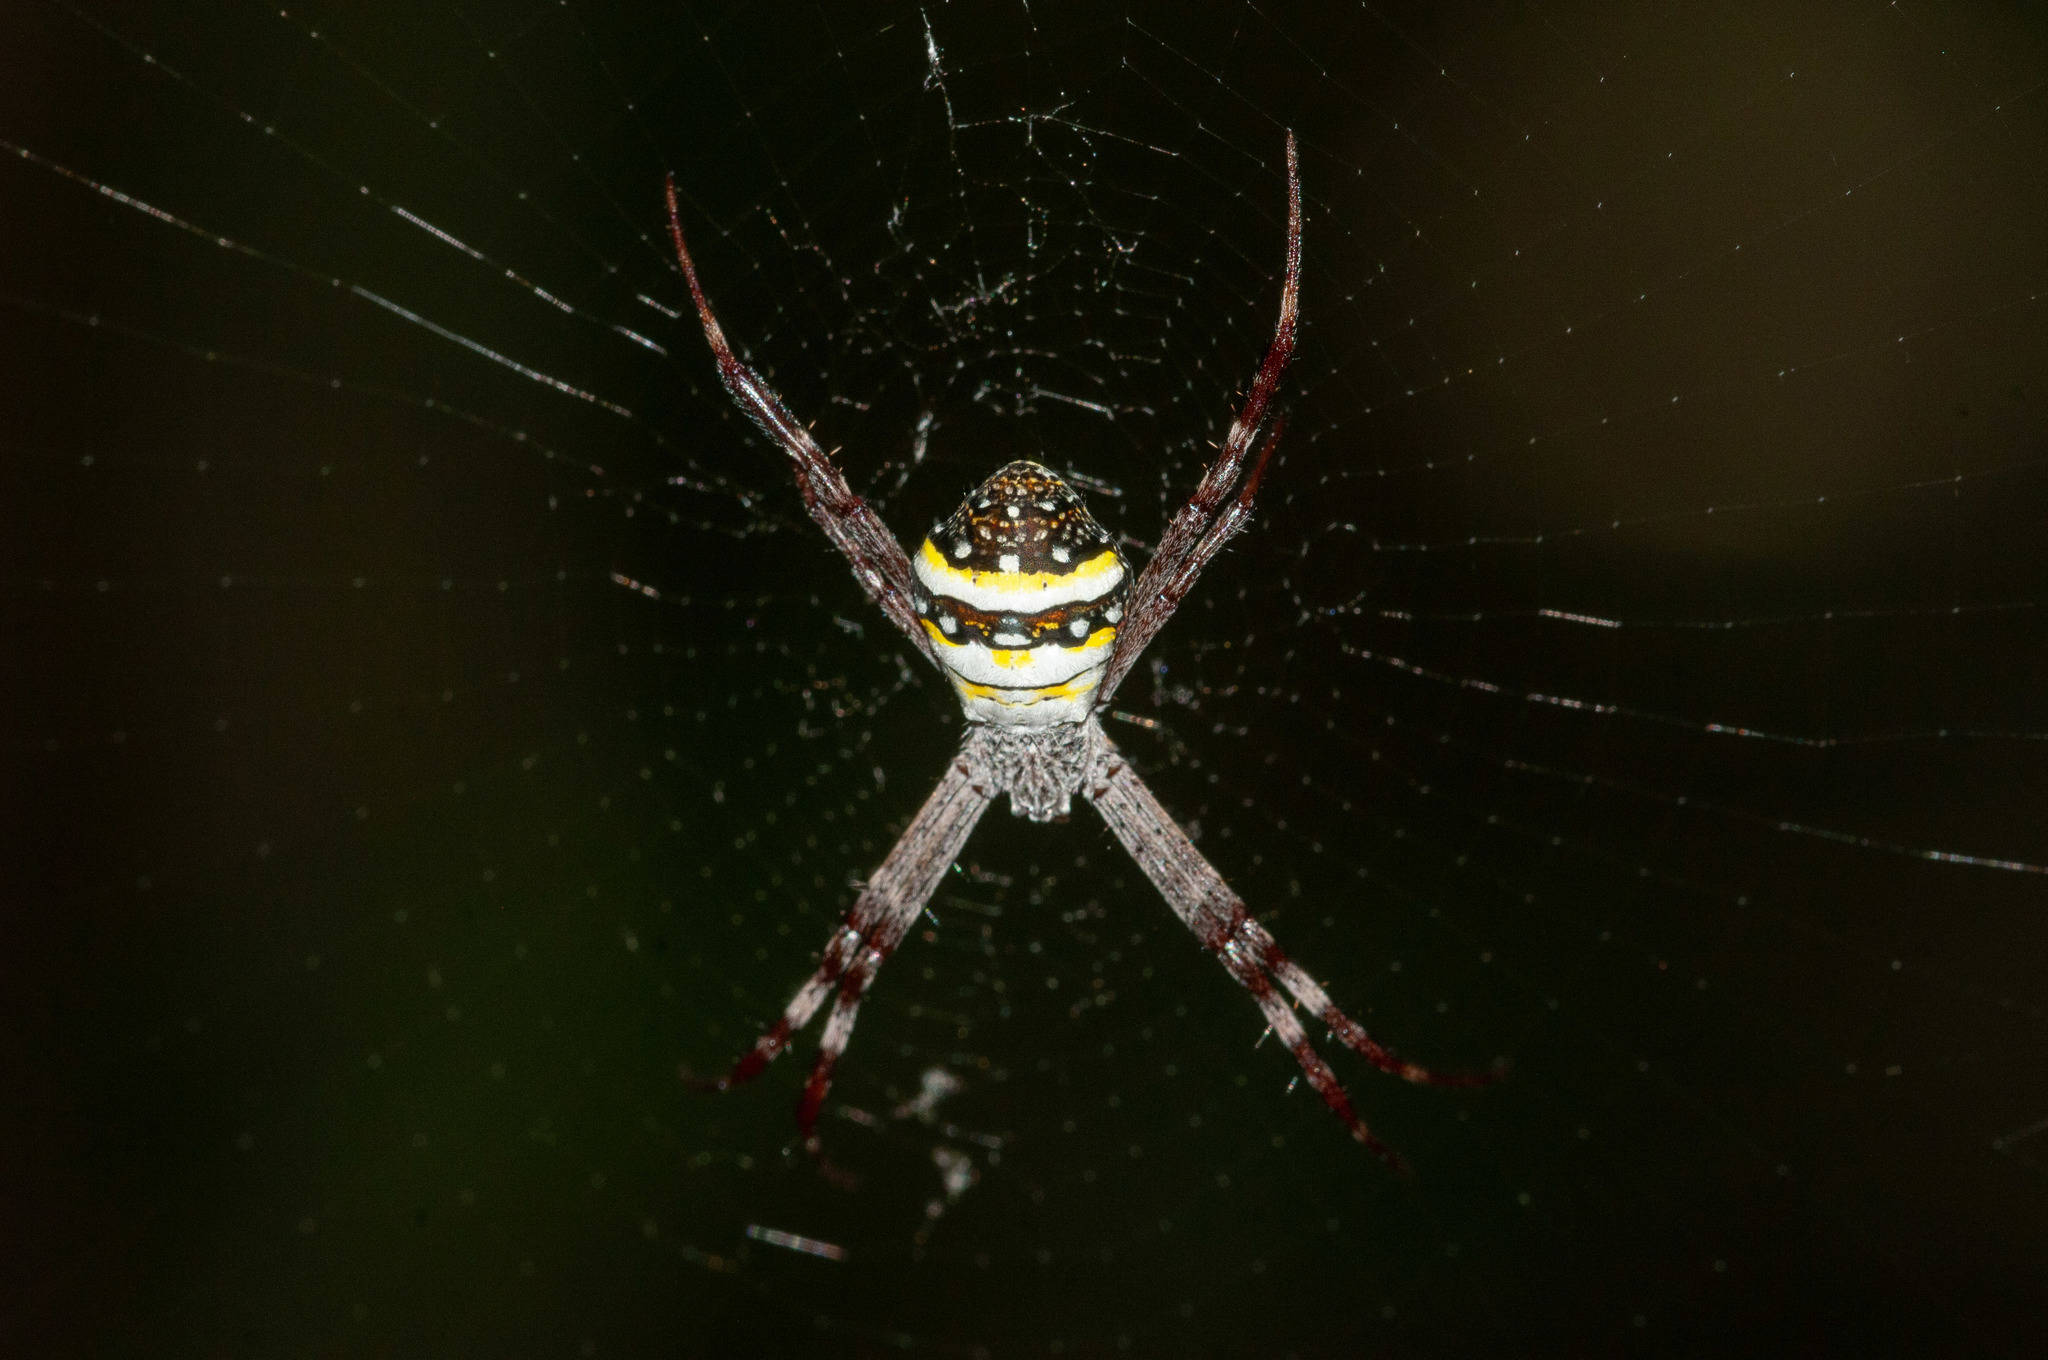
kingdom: Animalia
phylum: Arthropoda
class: Arachnida
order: Araneae
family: Araneidae
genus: Argiope
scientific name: Argiope aetherea
